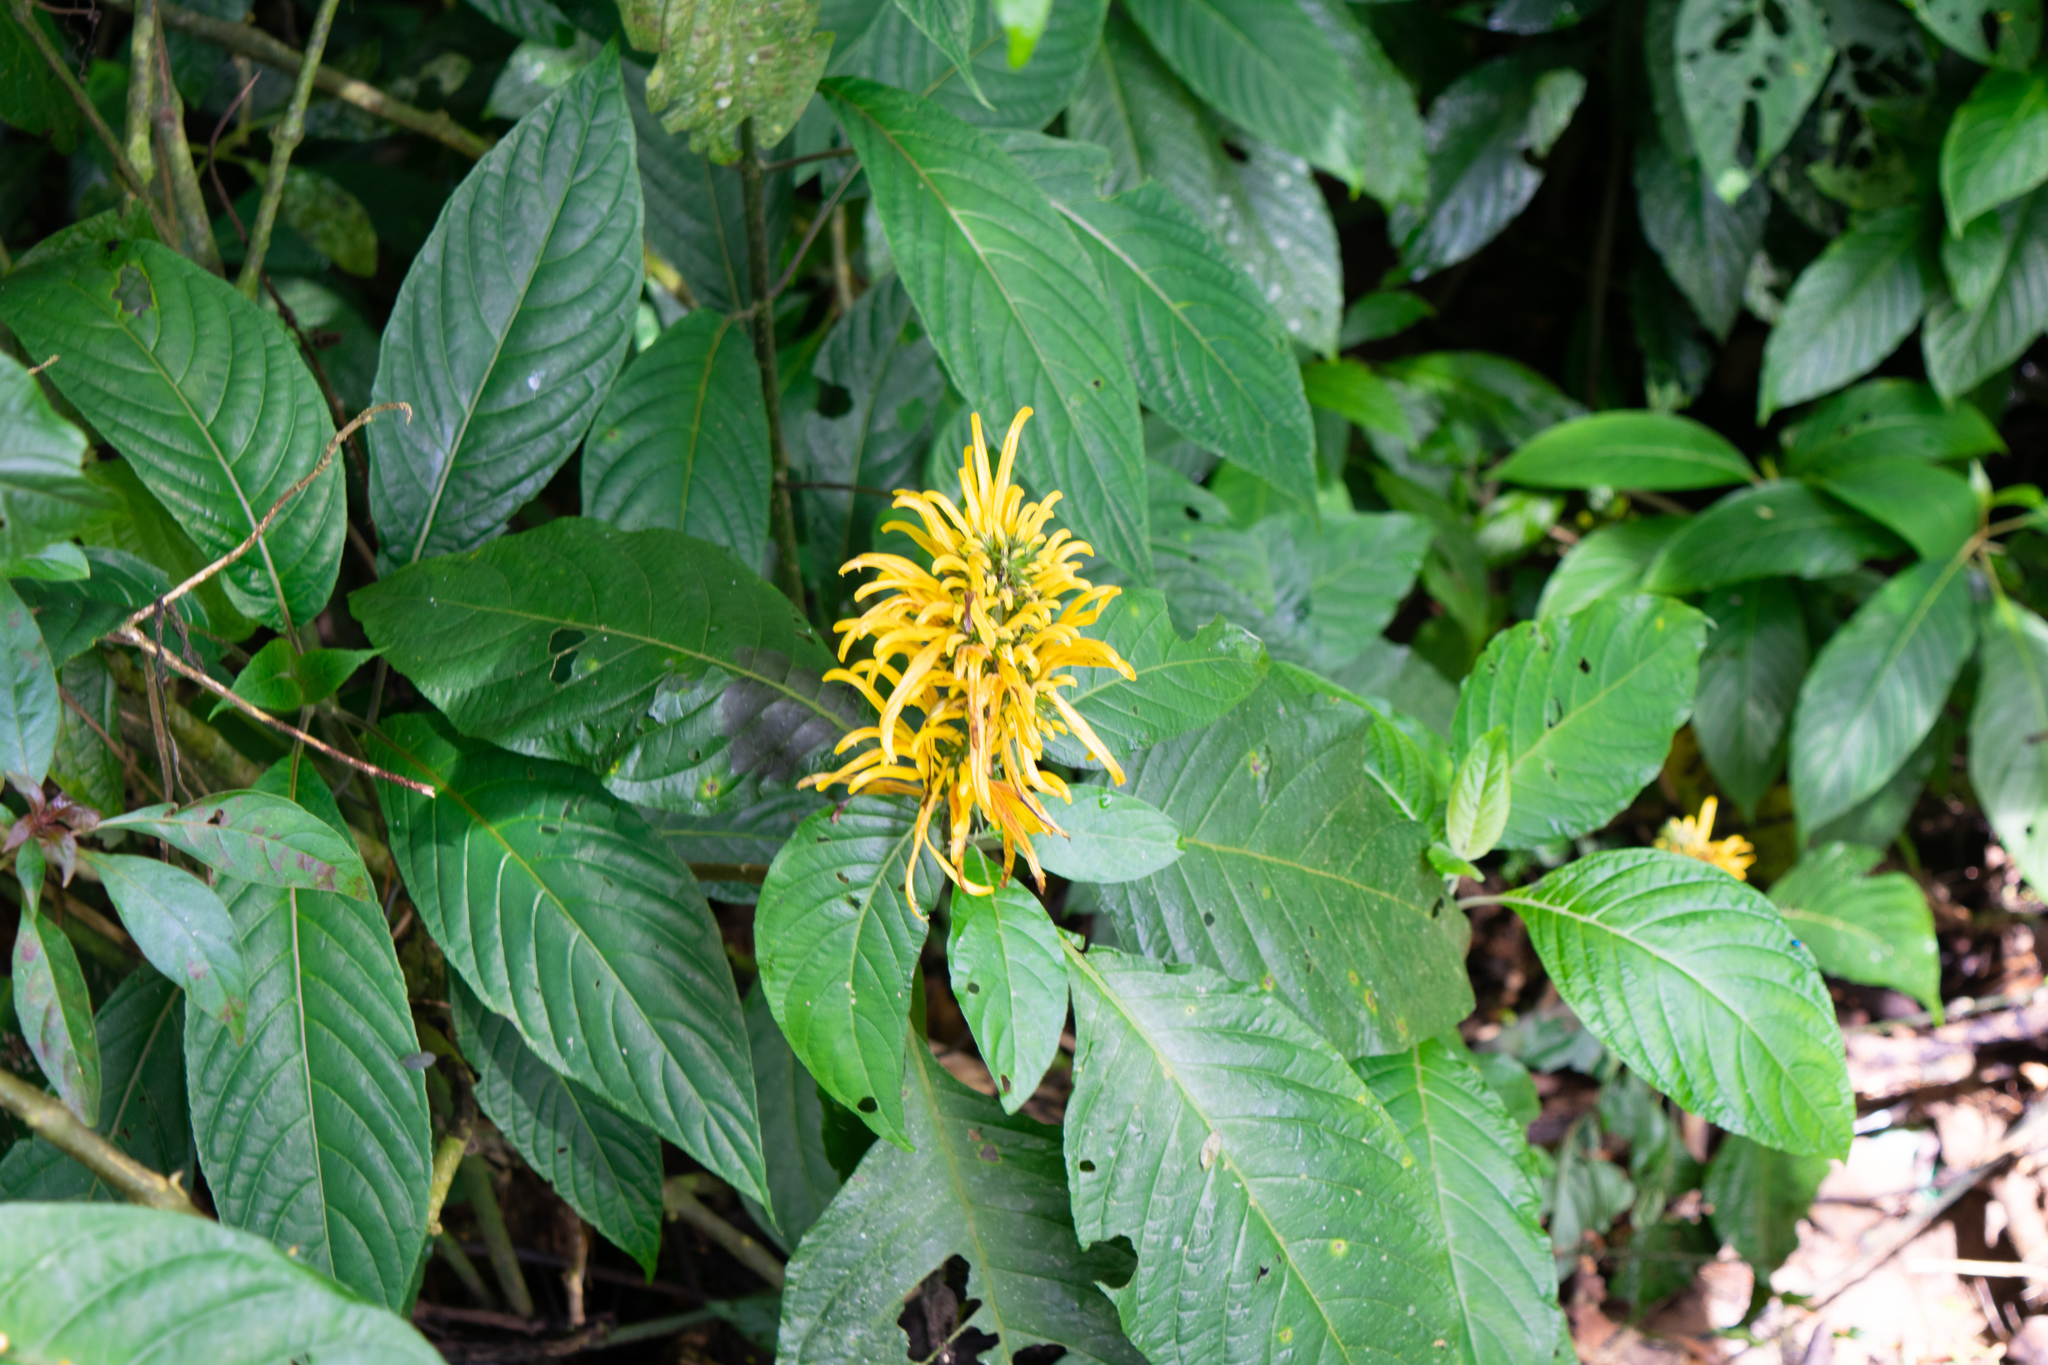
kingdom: Plantae
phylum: Tracheophyta
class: Magnoliopsida
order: Lamiales
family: Acanthaceae
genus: Justicia
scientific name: Justicia aurea
